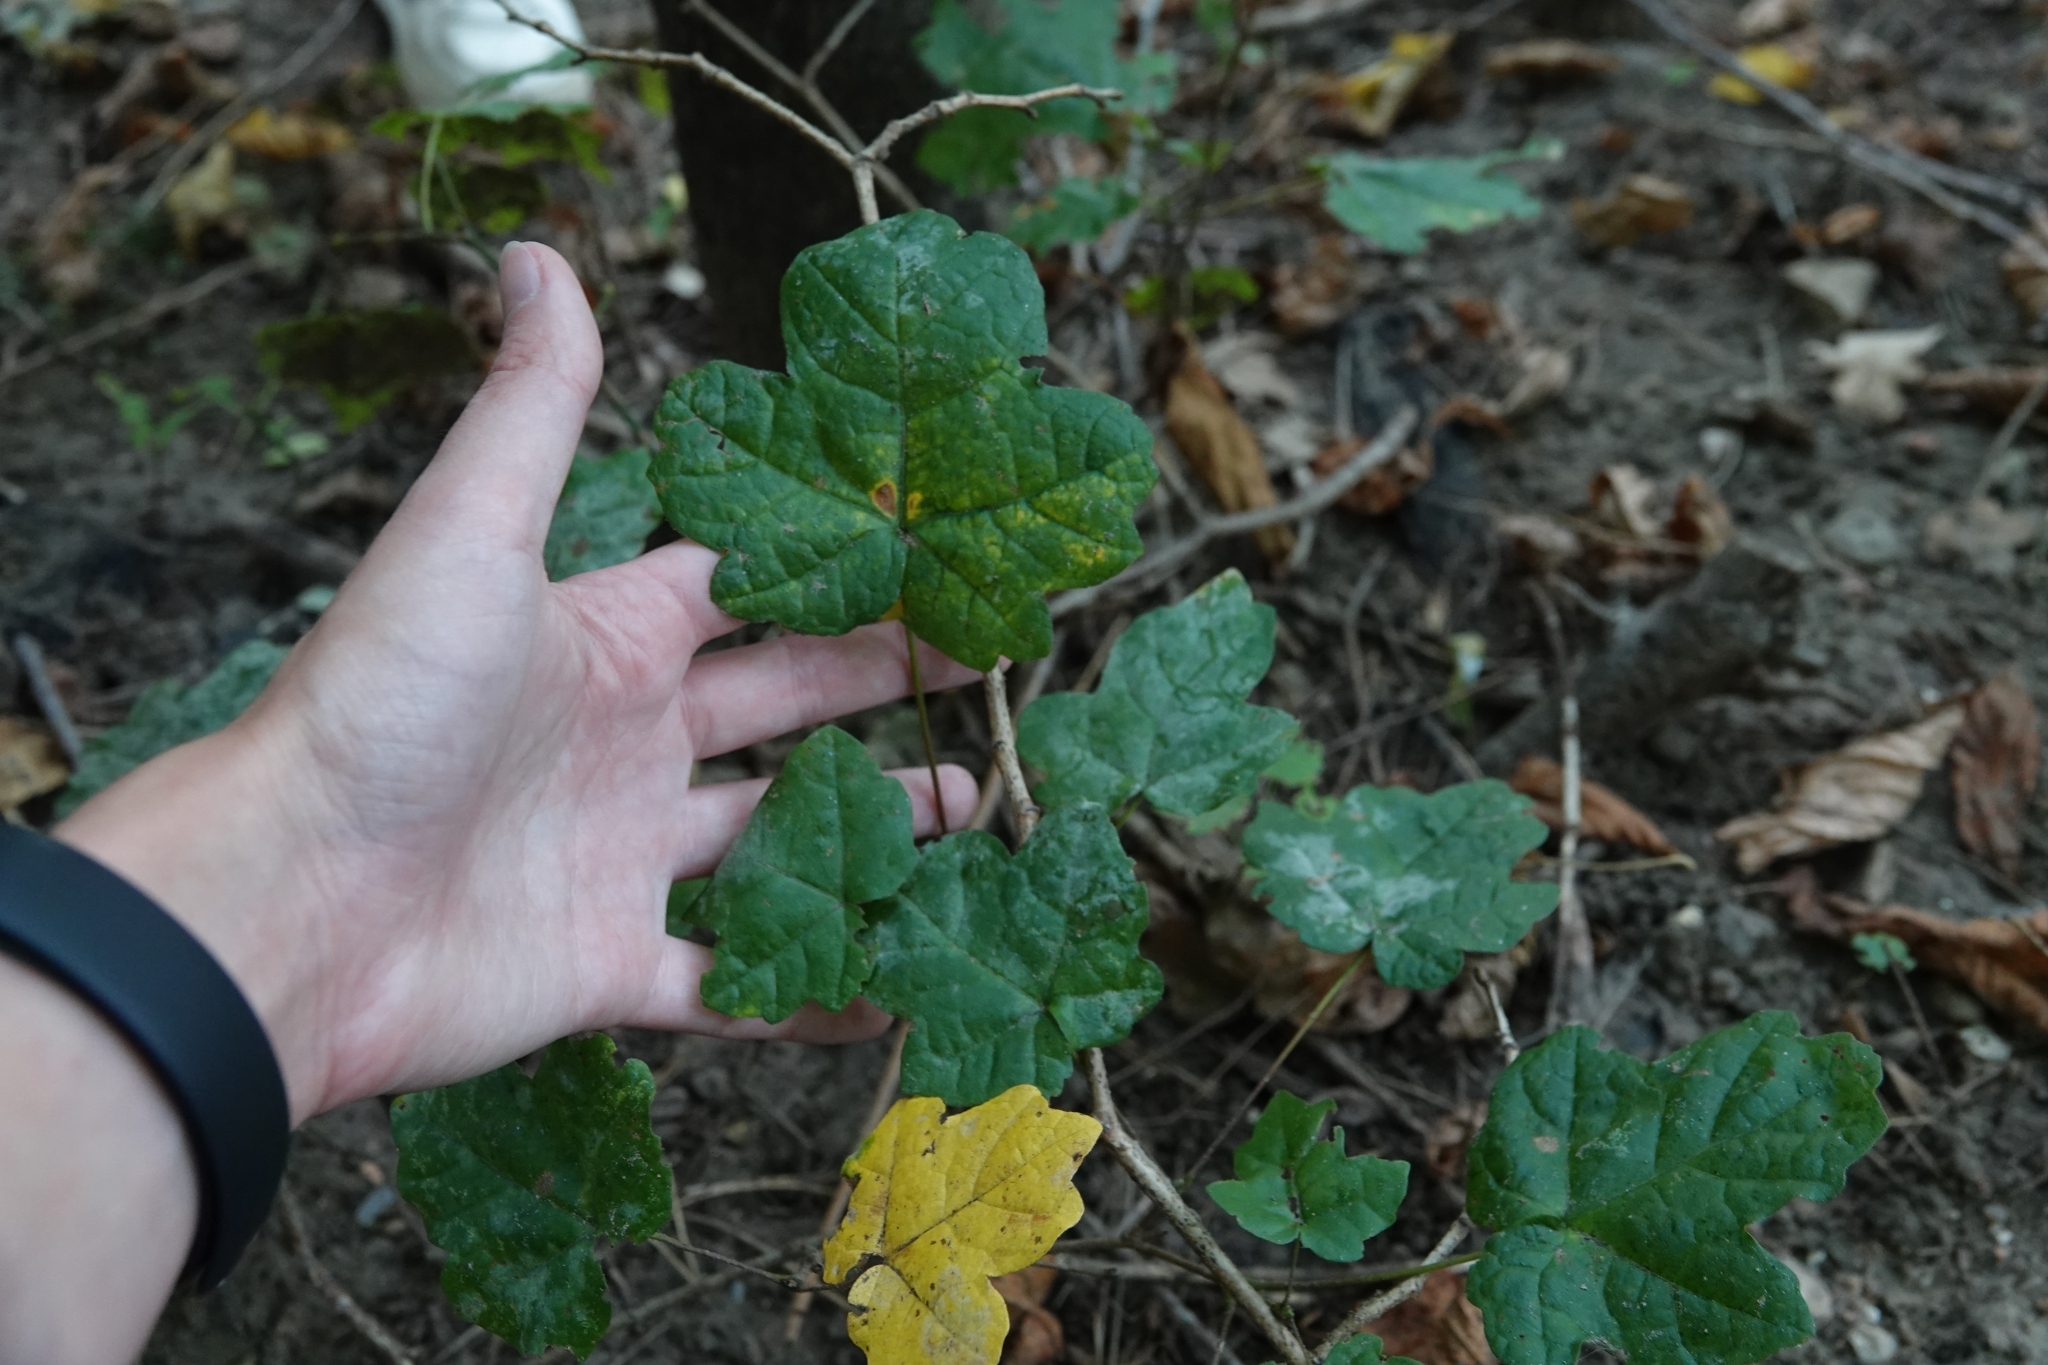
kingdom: Plantae
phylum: Tracheophyta
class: Magnoliopsida
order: Sapindales
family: Sapindaceae
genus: Acer
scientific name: Acer campestre
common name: Field maple
